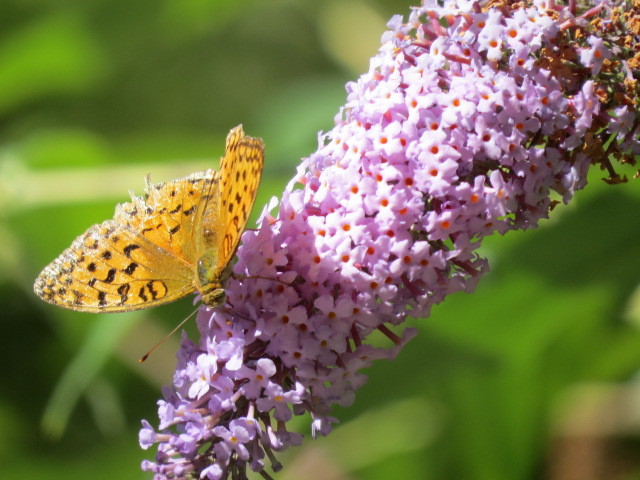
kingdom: Animalia
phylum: Arthropoda
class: Insecta
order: Lepidoptera
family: Nymphalidae
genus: Fabriciana
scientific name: Fabriciana adippe
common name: High brown fritillary
